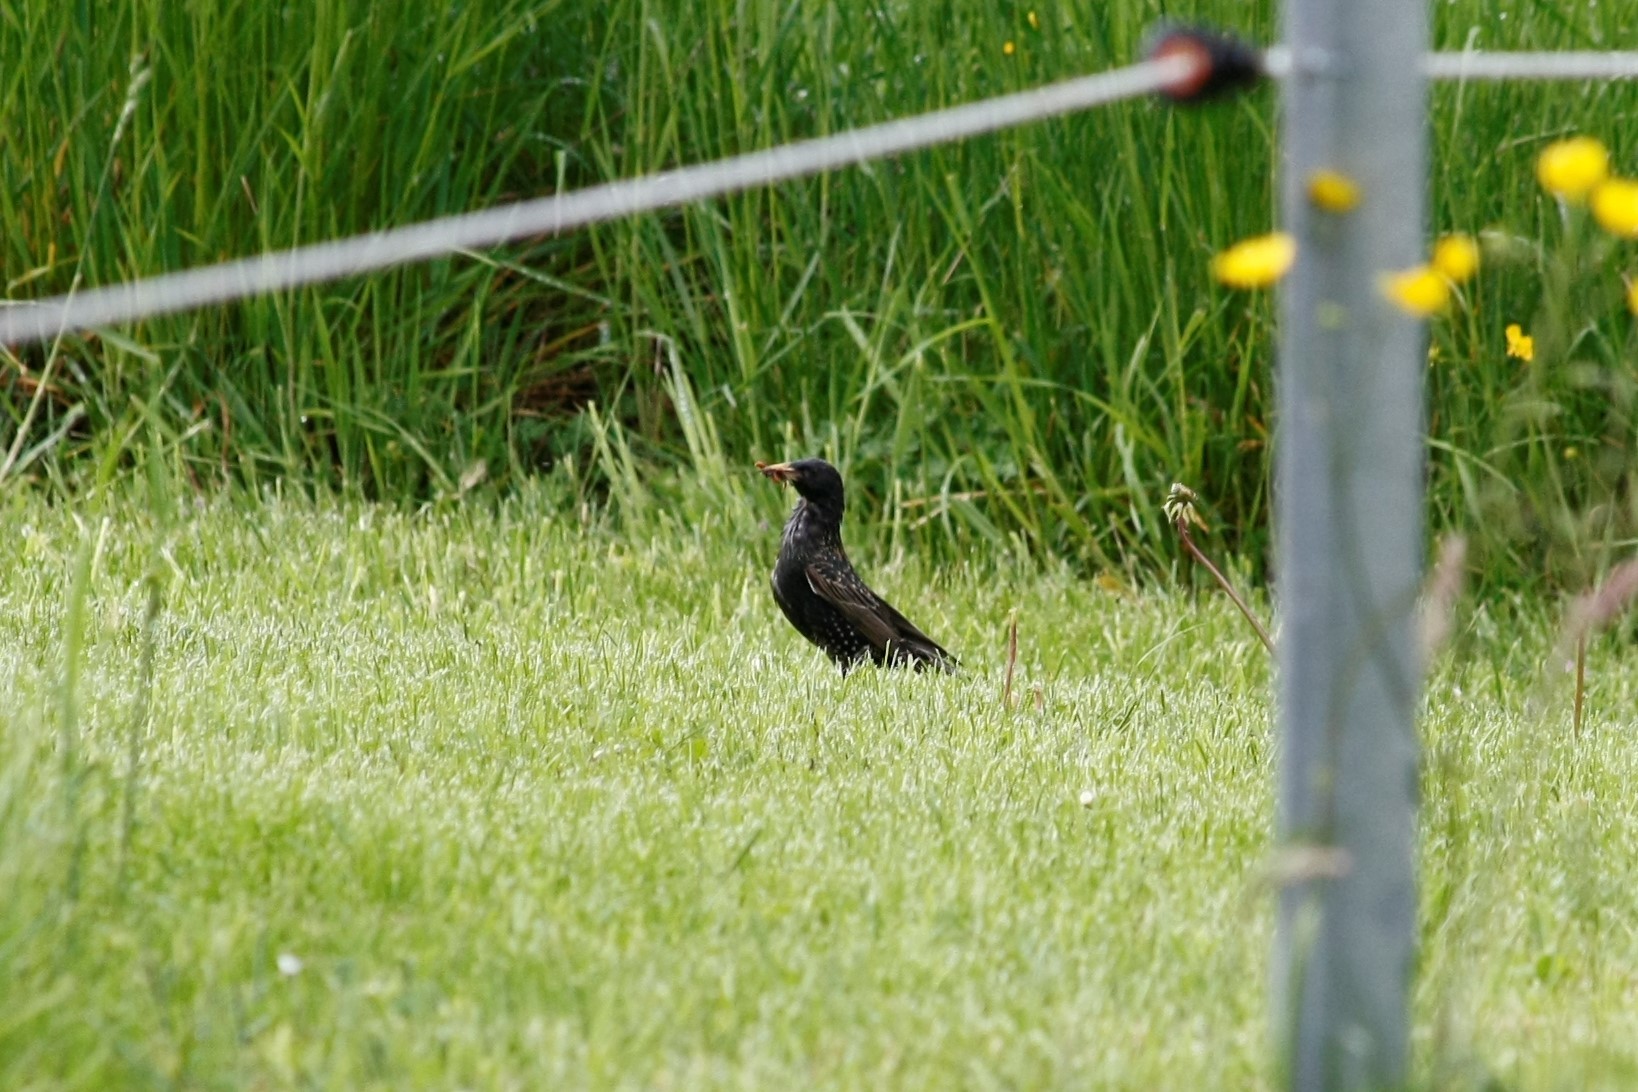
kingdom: Animalia
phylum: Chordata
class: Aves
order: Passeriformes
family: Sturnidae
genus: Sturnus
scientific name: Sturnus vulgaris
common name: Common starling
